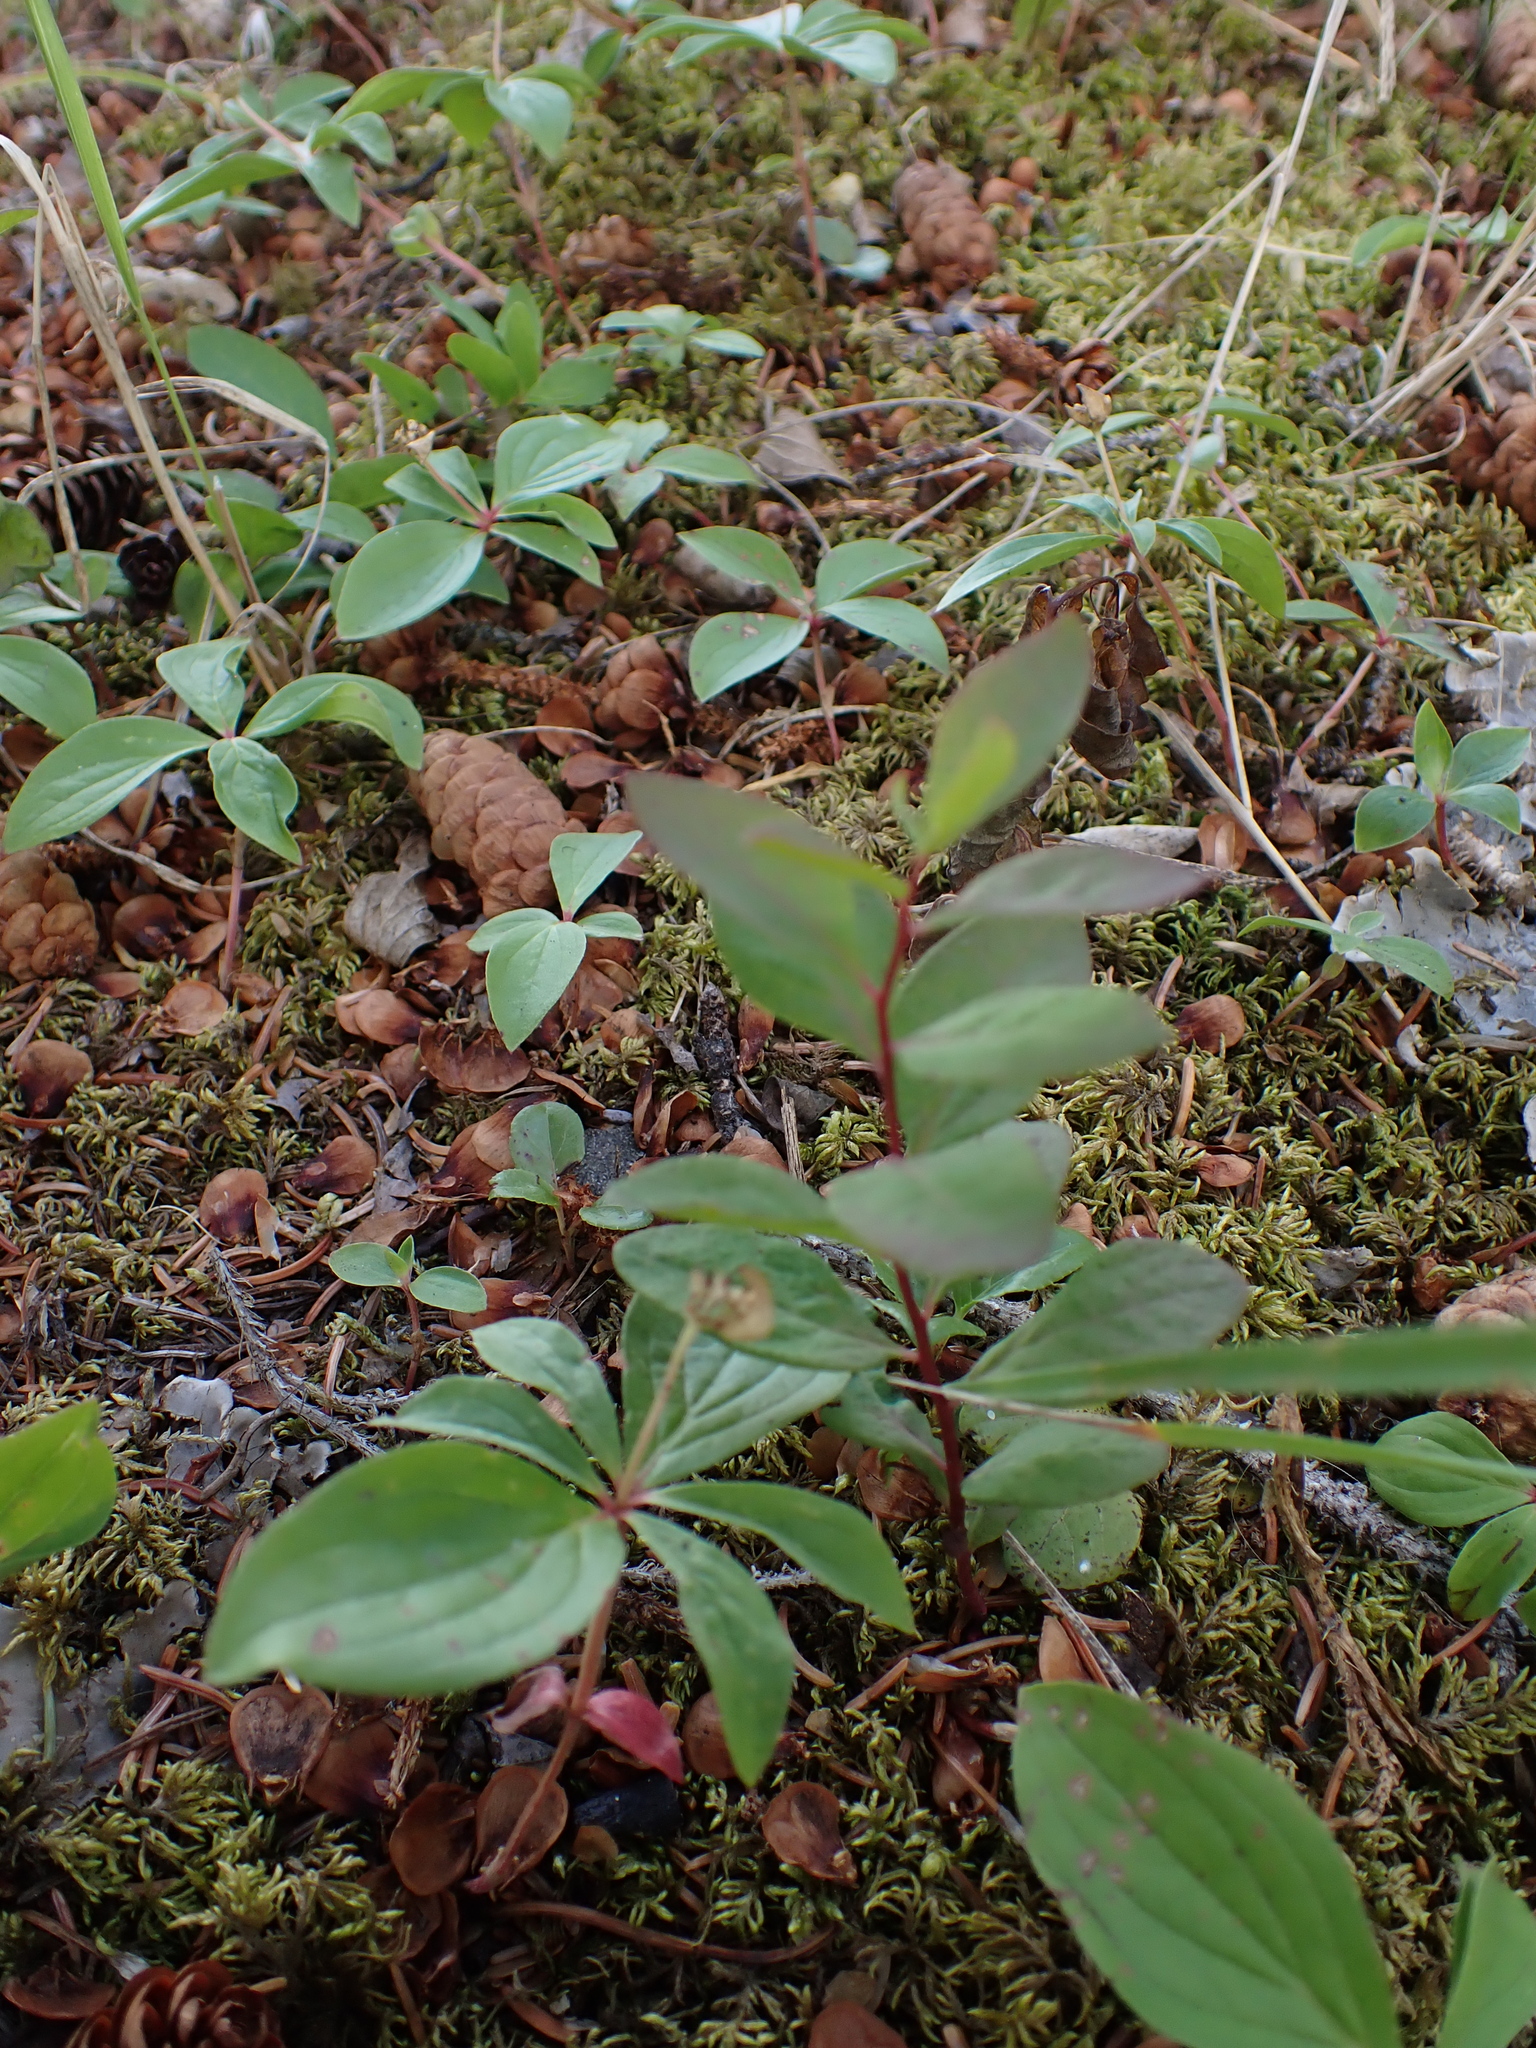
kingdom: Plantae
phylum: Tracheophyta
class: Magnoliopsida
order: Santalales
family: Comandraceae
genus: Geocaulon
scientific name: Geocaulon lividum
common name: Earthberry
